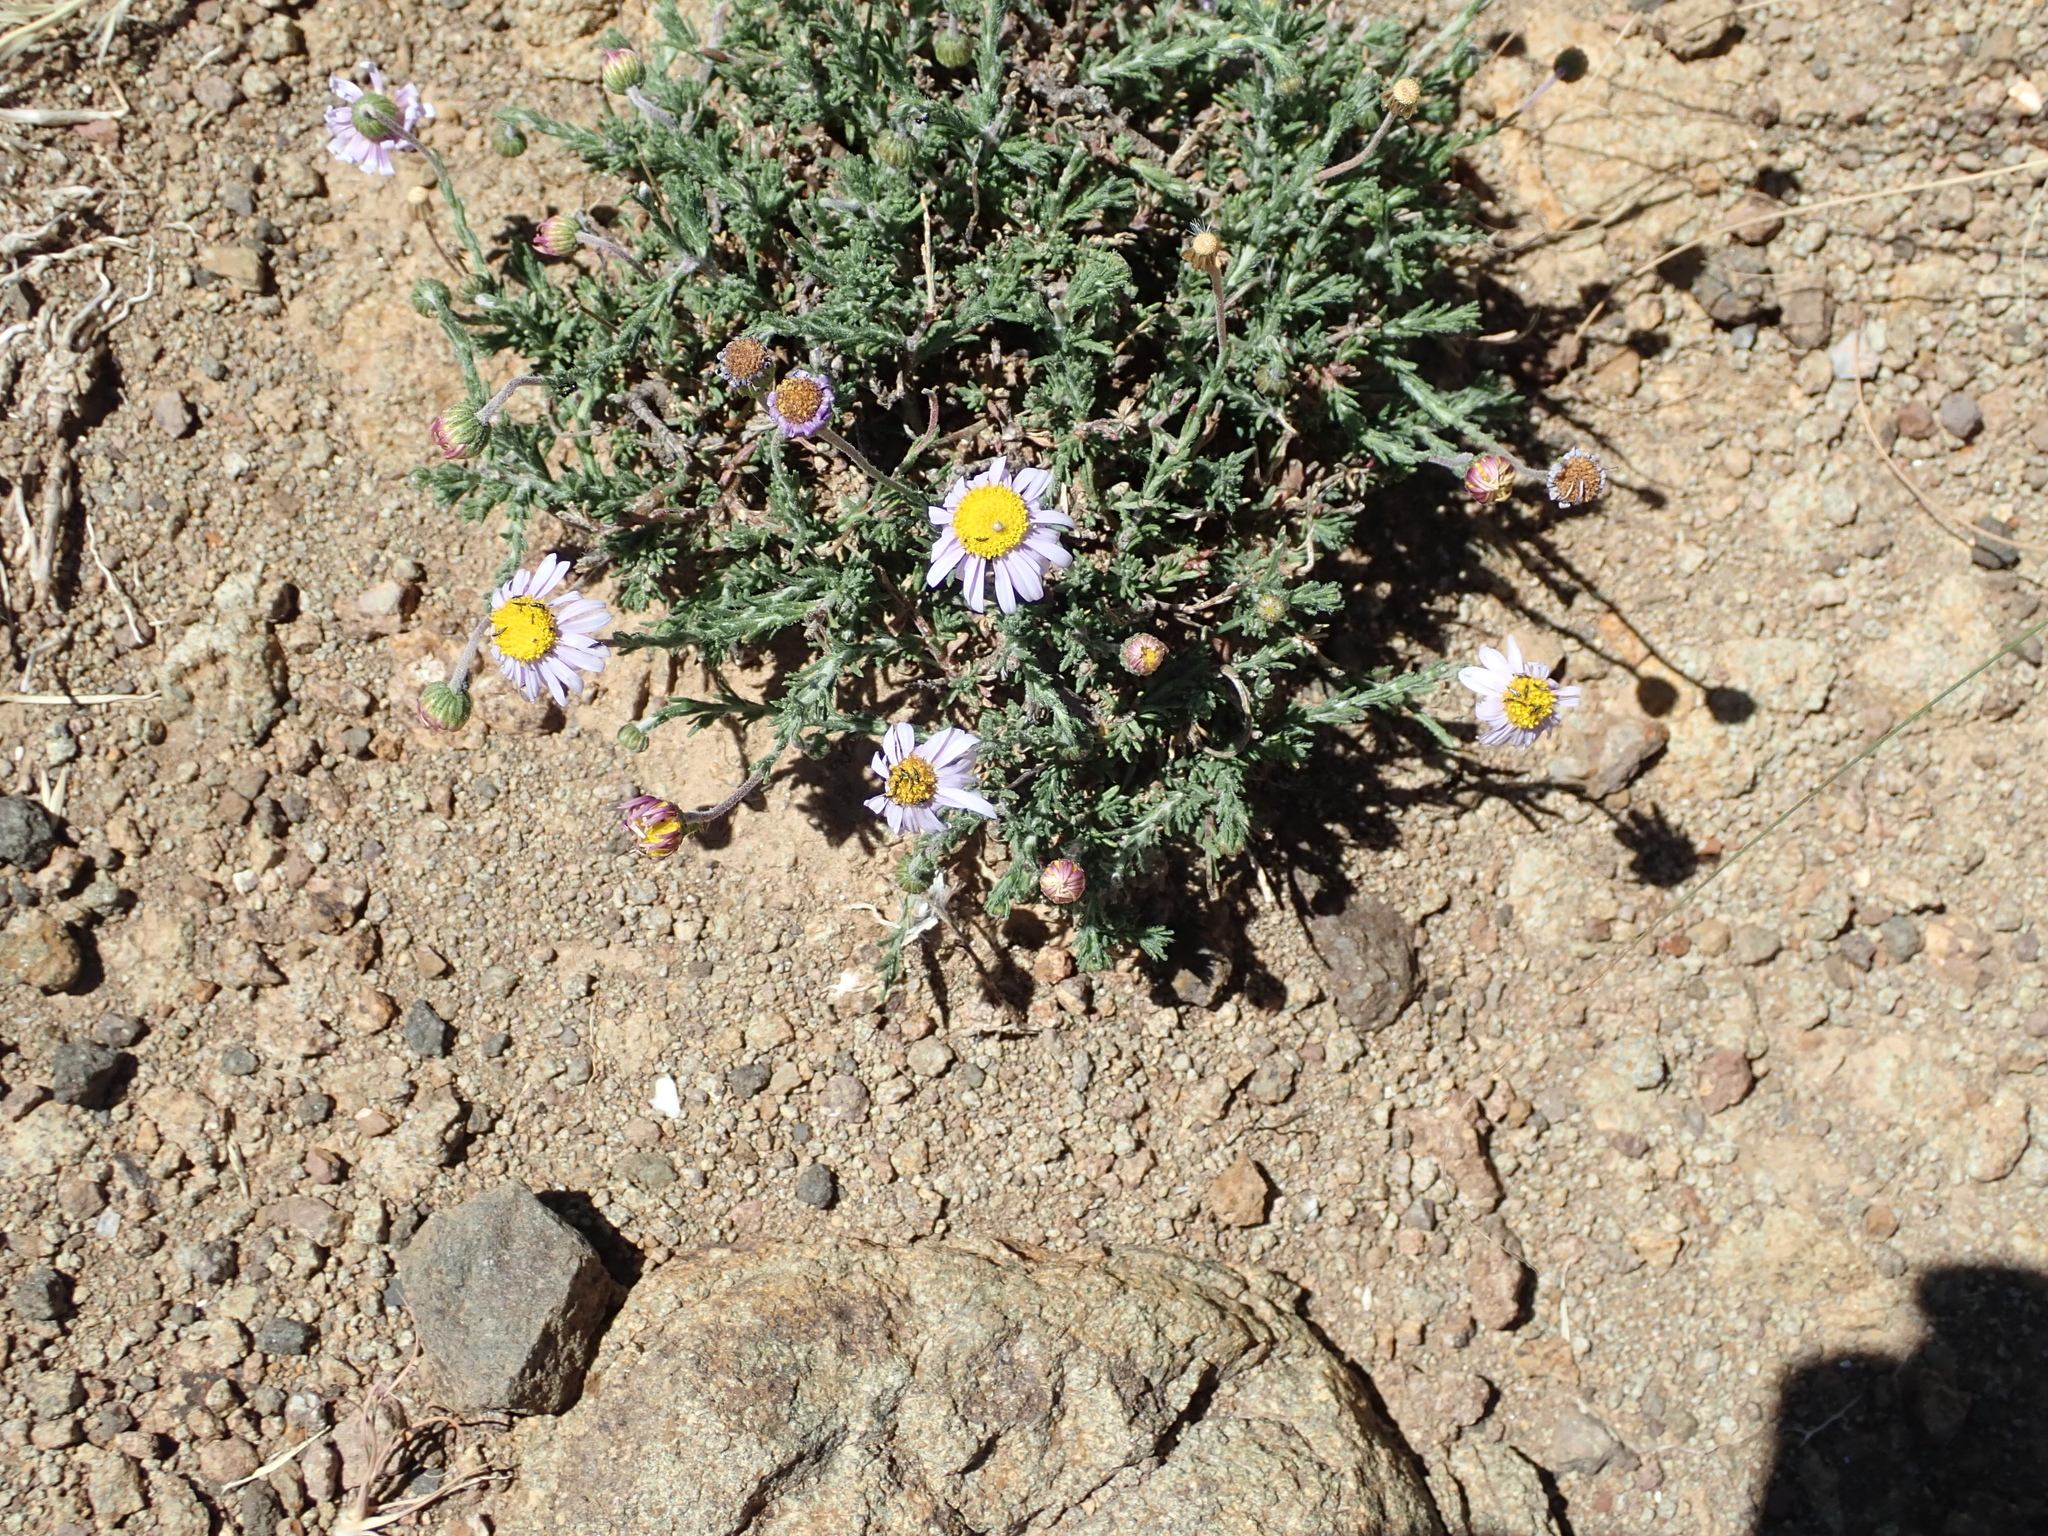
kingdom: Plantae
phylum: Tracheophyta
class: Magnoliopsida
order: Asterales
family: Asteraceae
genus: Felicia
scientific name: Felicia caespitosa
